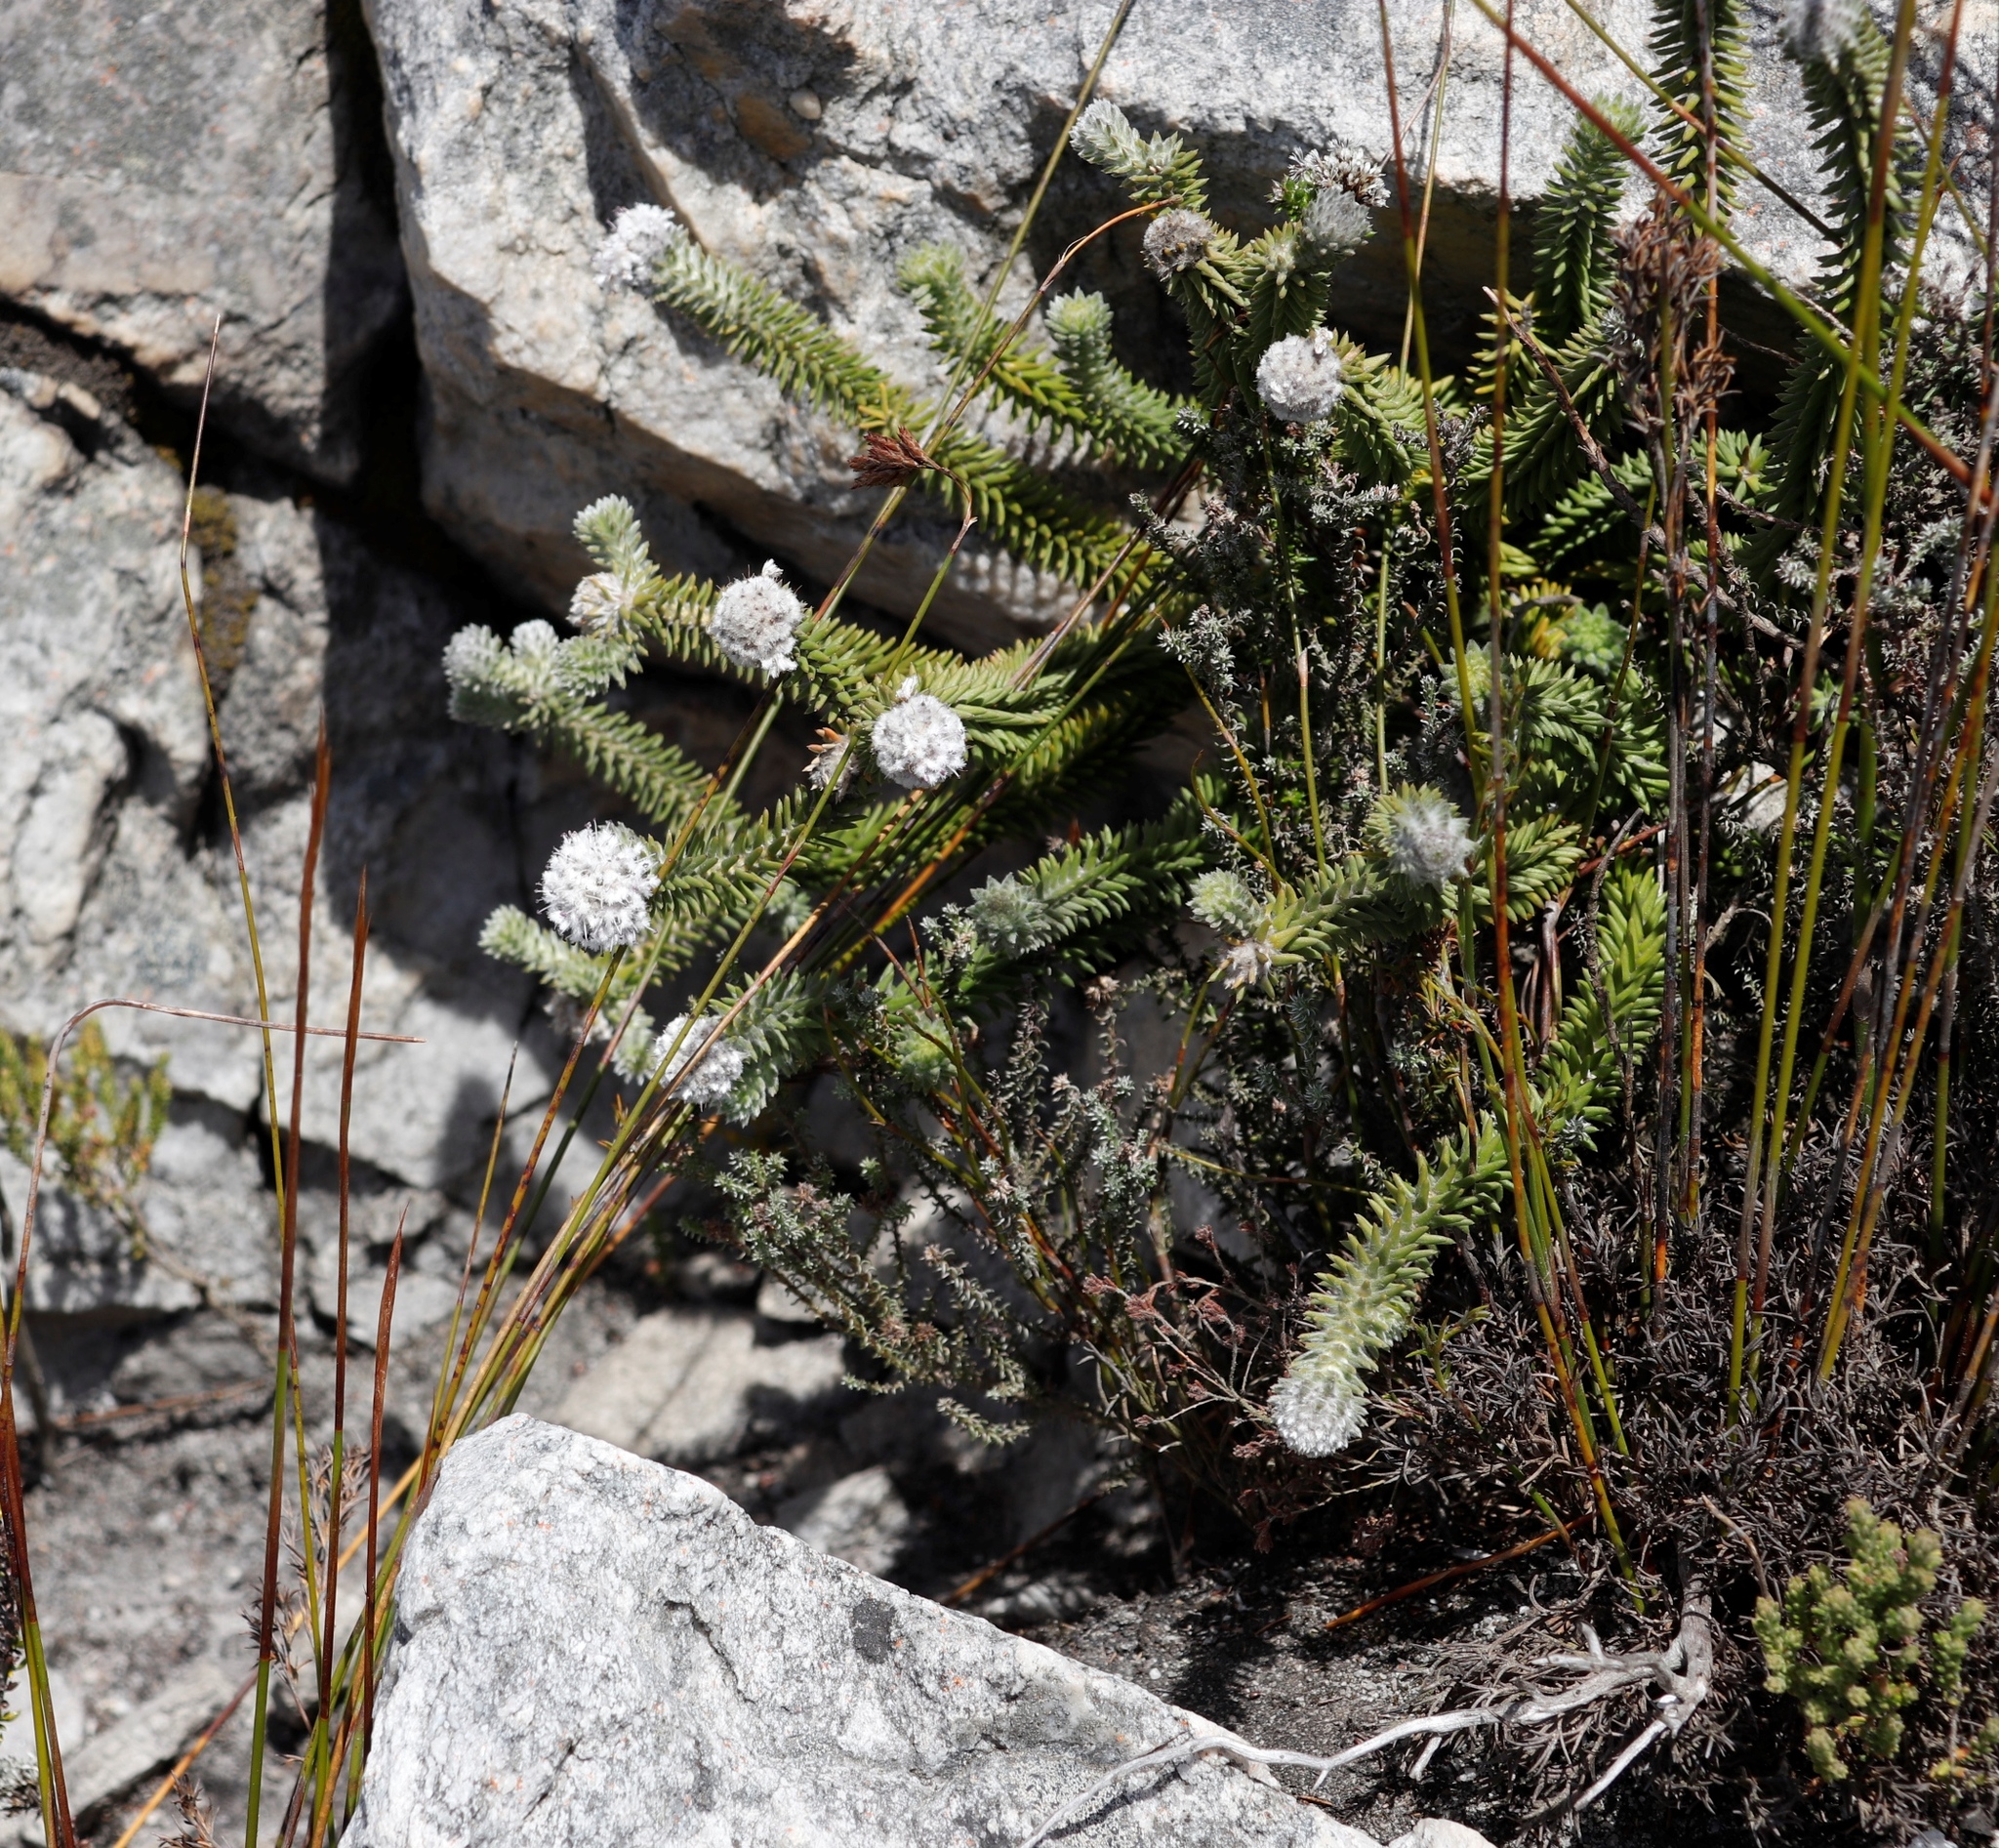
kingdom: Plantae
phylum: Tracheophyta
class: Magnoliopsida
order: Lamiales
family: Stilbaceae
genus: Kogelbergia
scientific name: Kogelbergia verticillata
